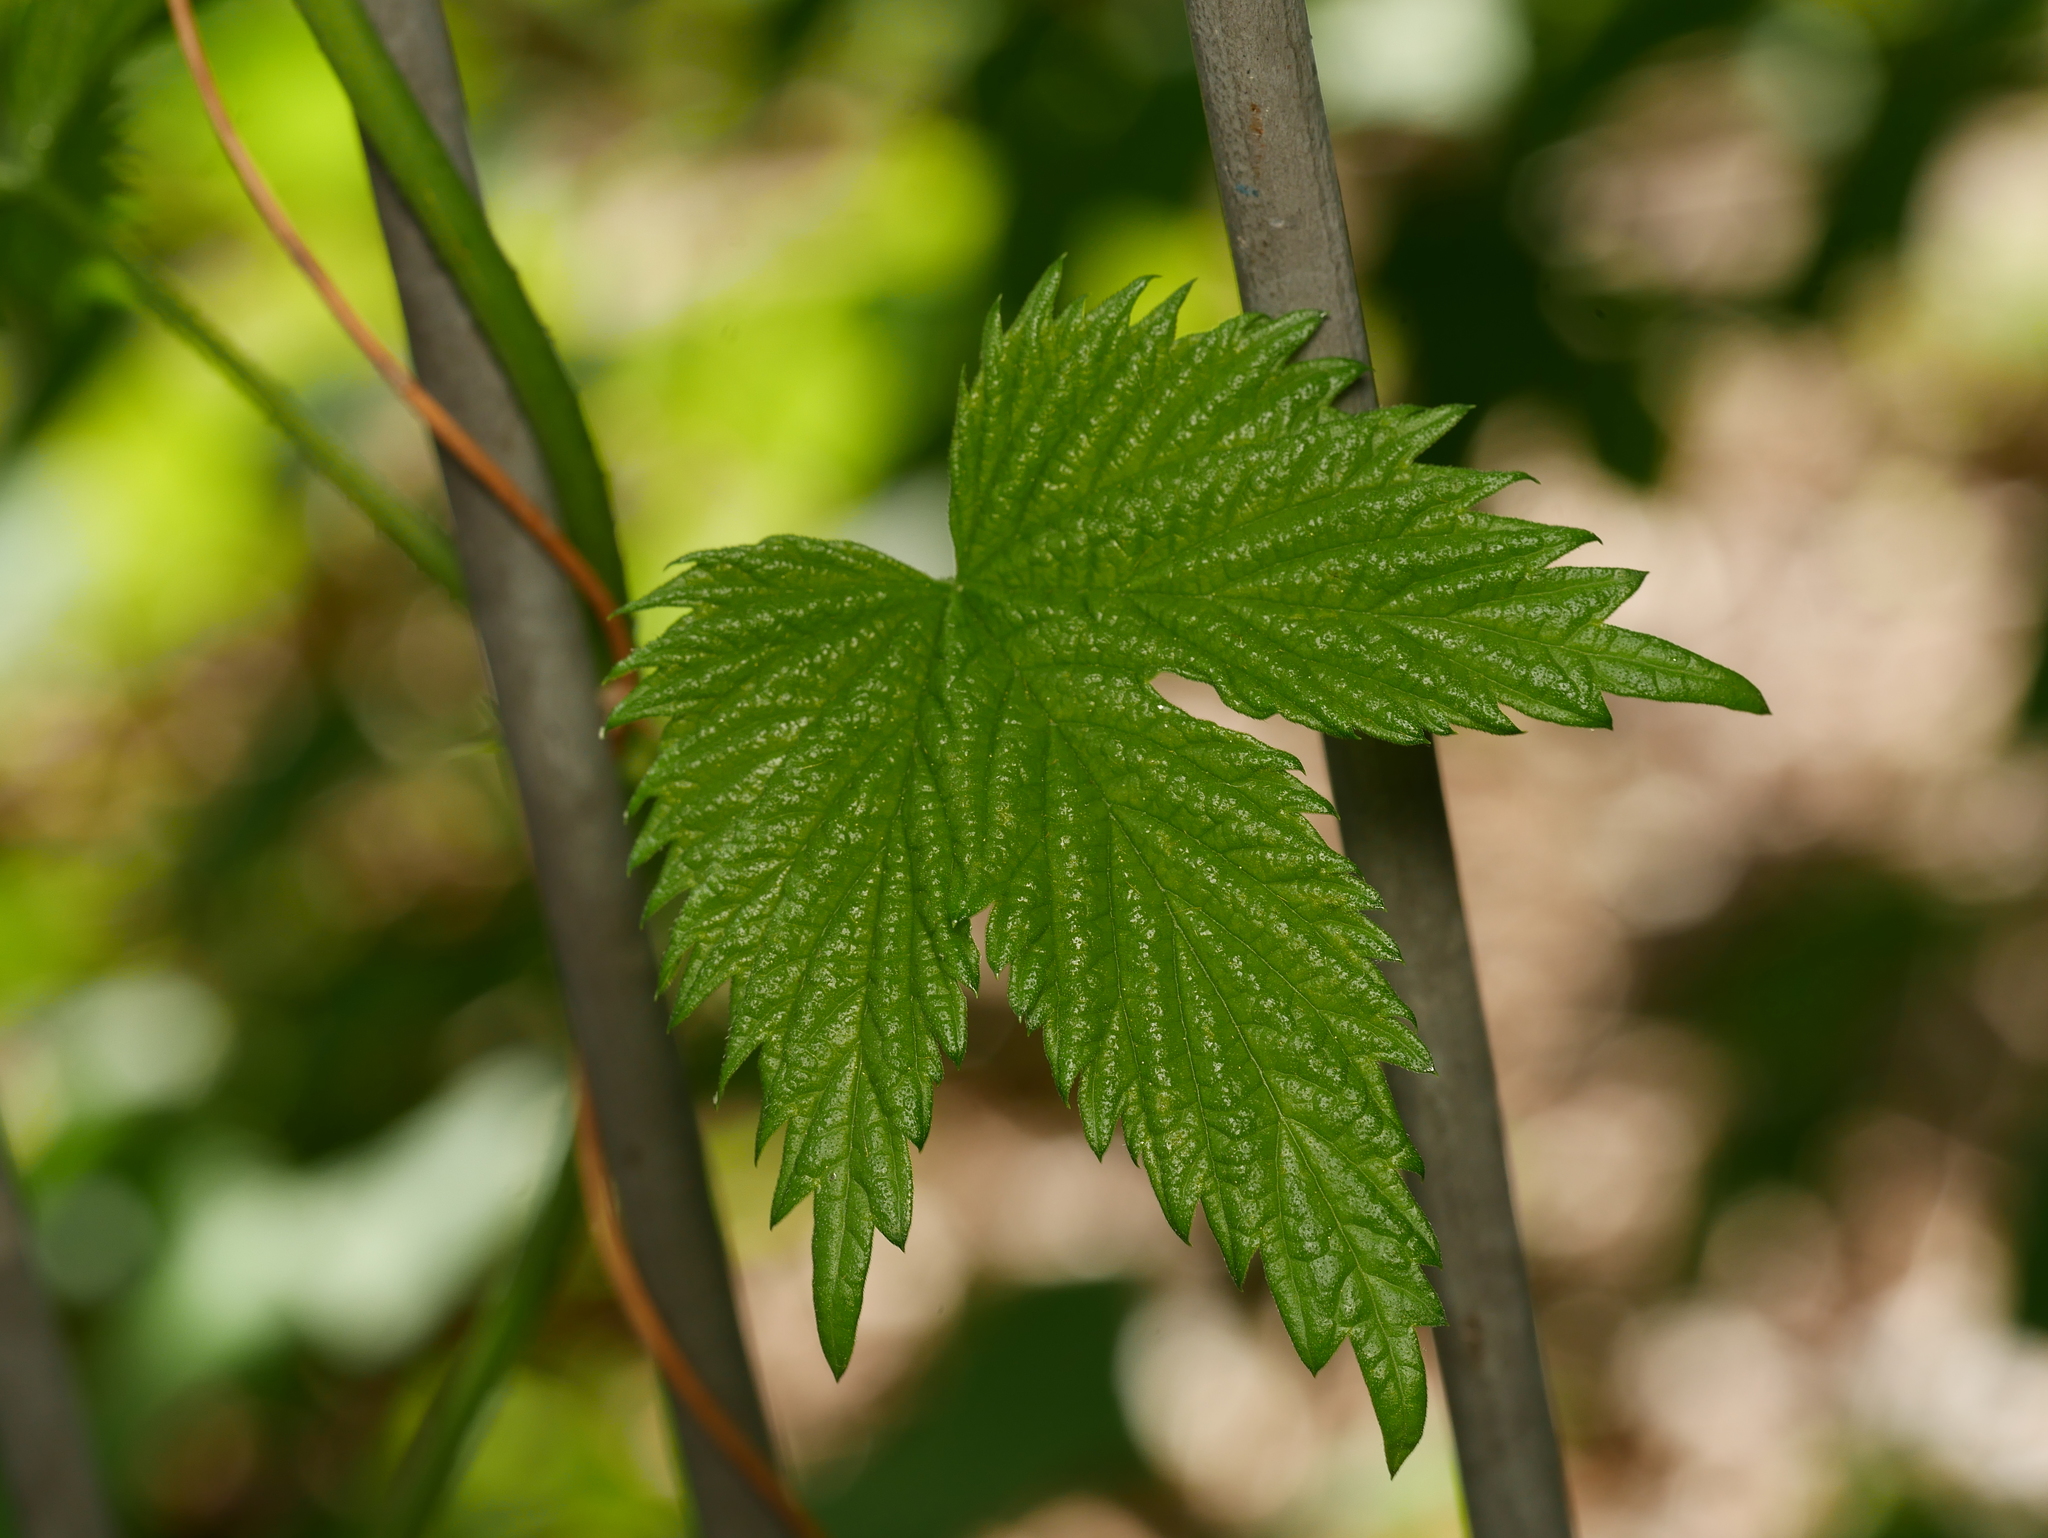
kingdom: Plantae
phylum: Tracheophyta
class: Magnoliopsida
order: Rosales
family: Cannabaceae
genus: Humulus
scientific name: Humulus lupulus
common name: Hop
